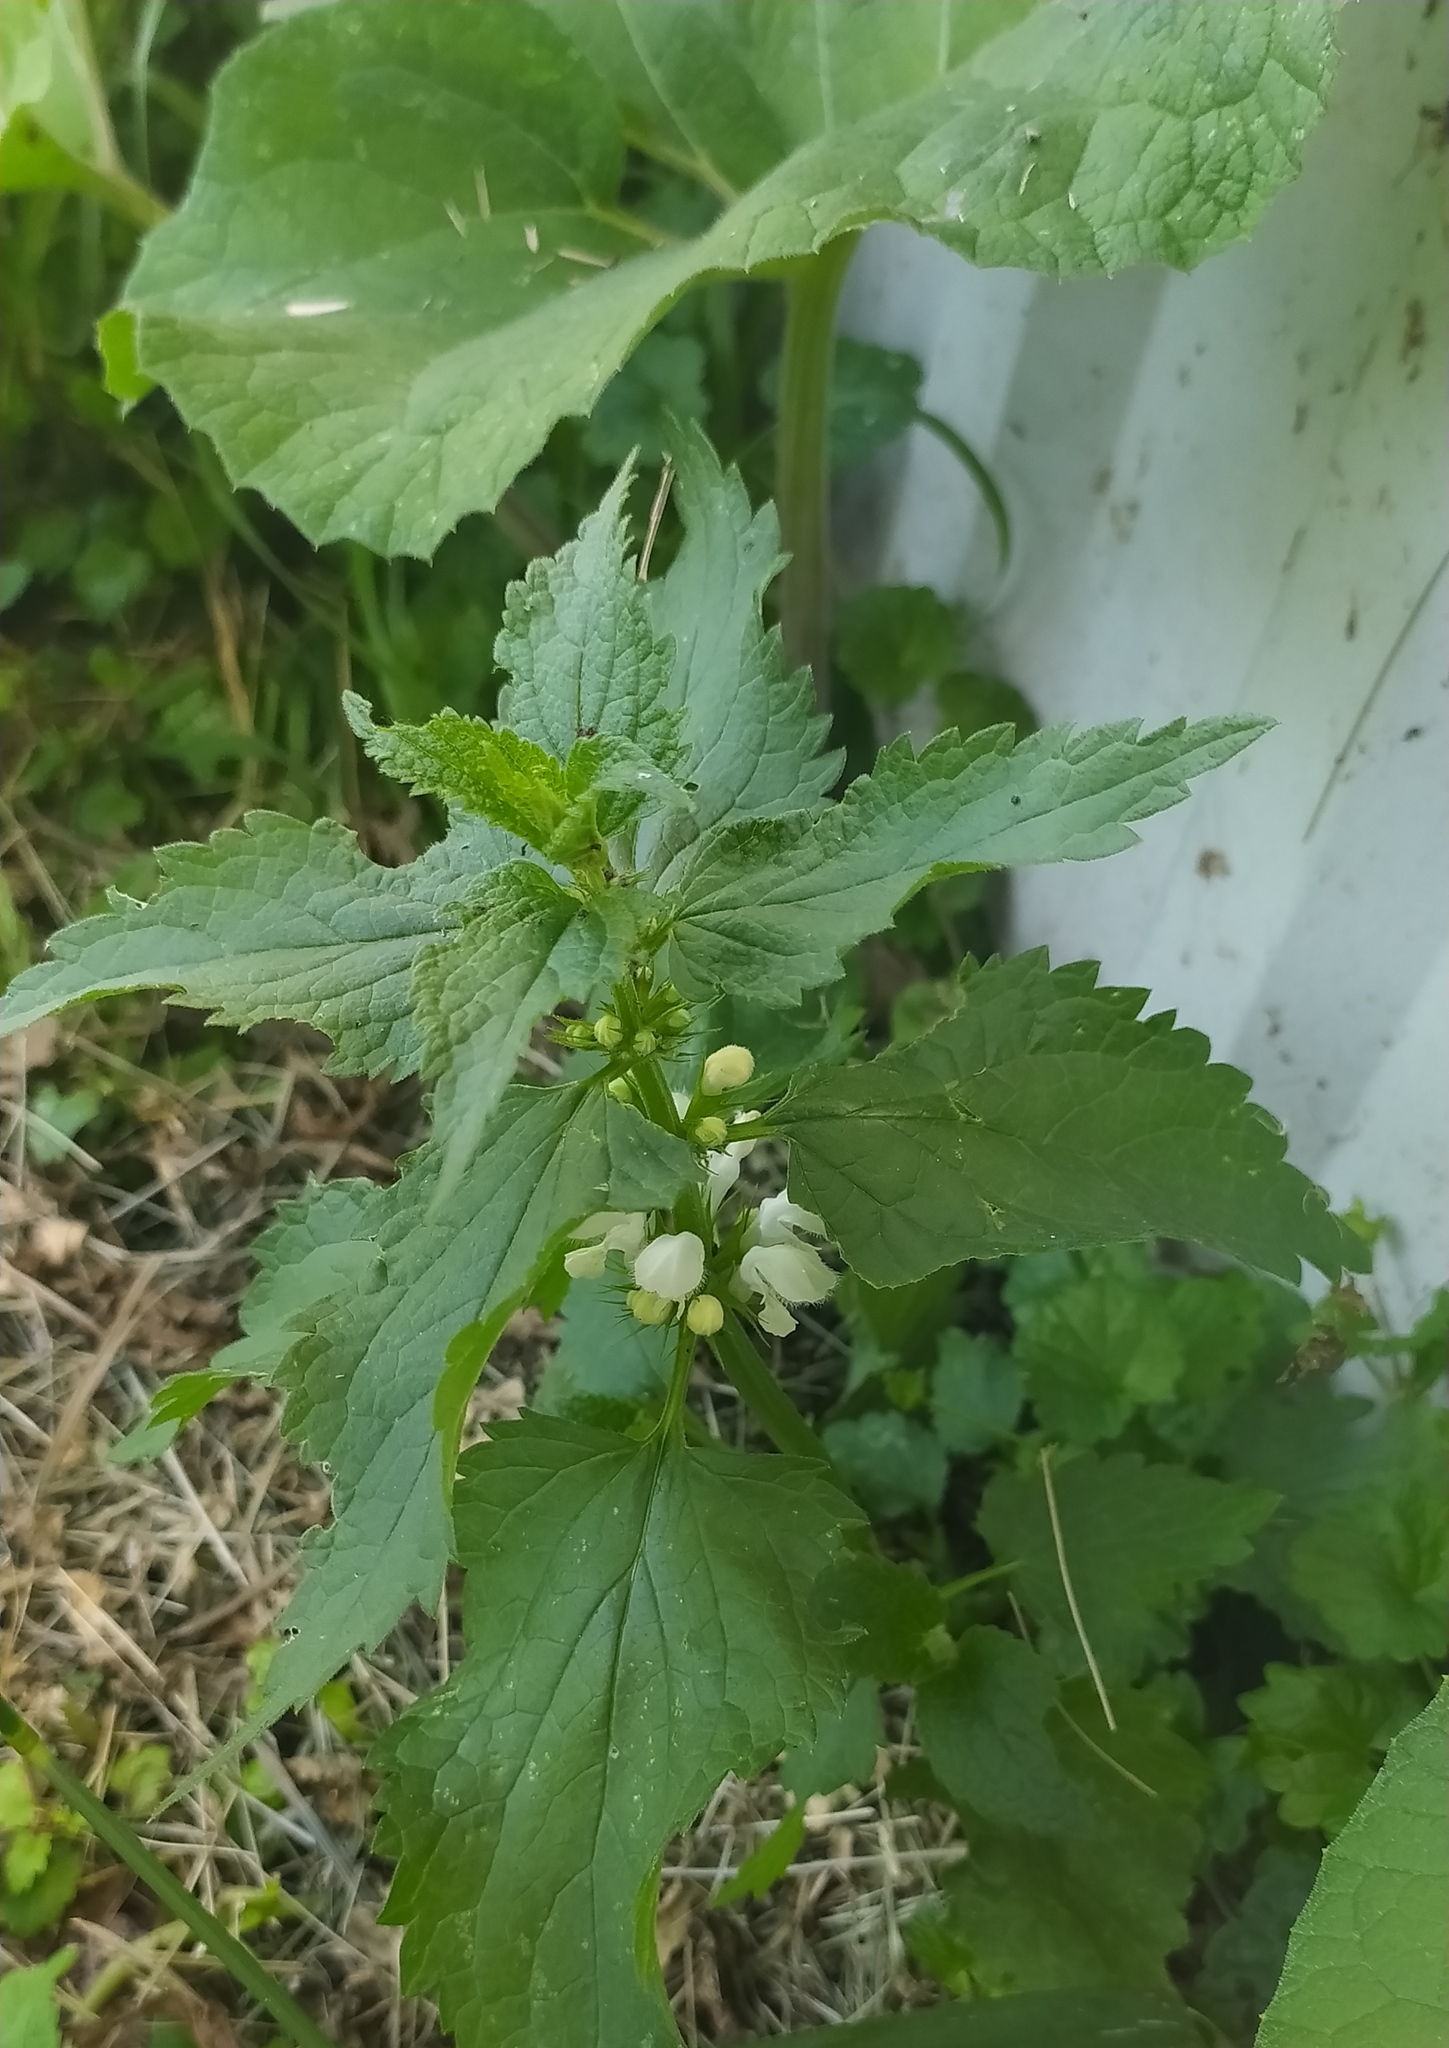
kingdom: Plantae
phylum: Tracheophyta
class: Magnoliopsida
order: Lamiales
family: Lamiaceae
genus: Lamium
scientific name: Lamium album
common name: White dead-nettle
